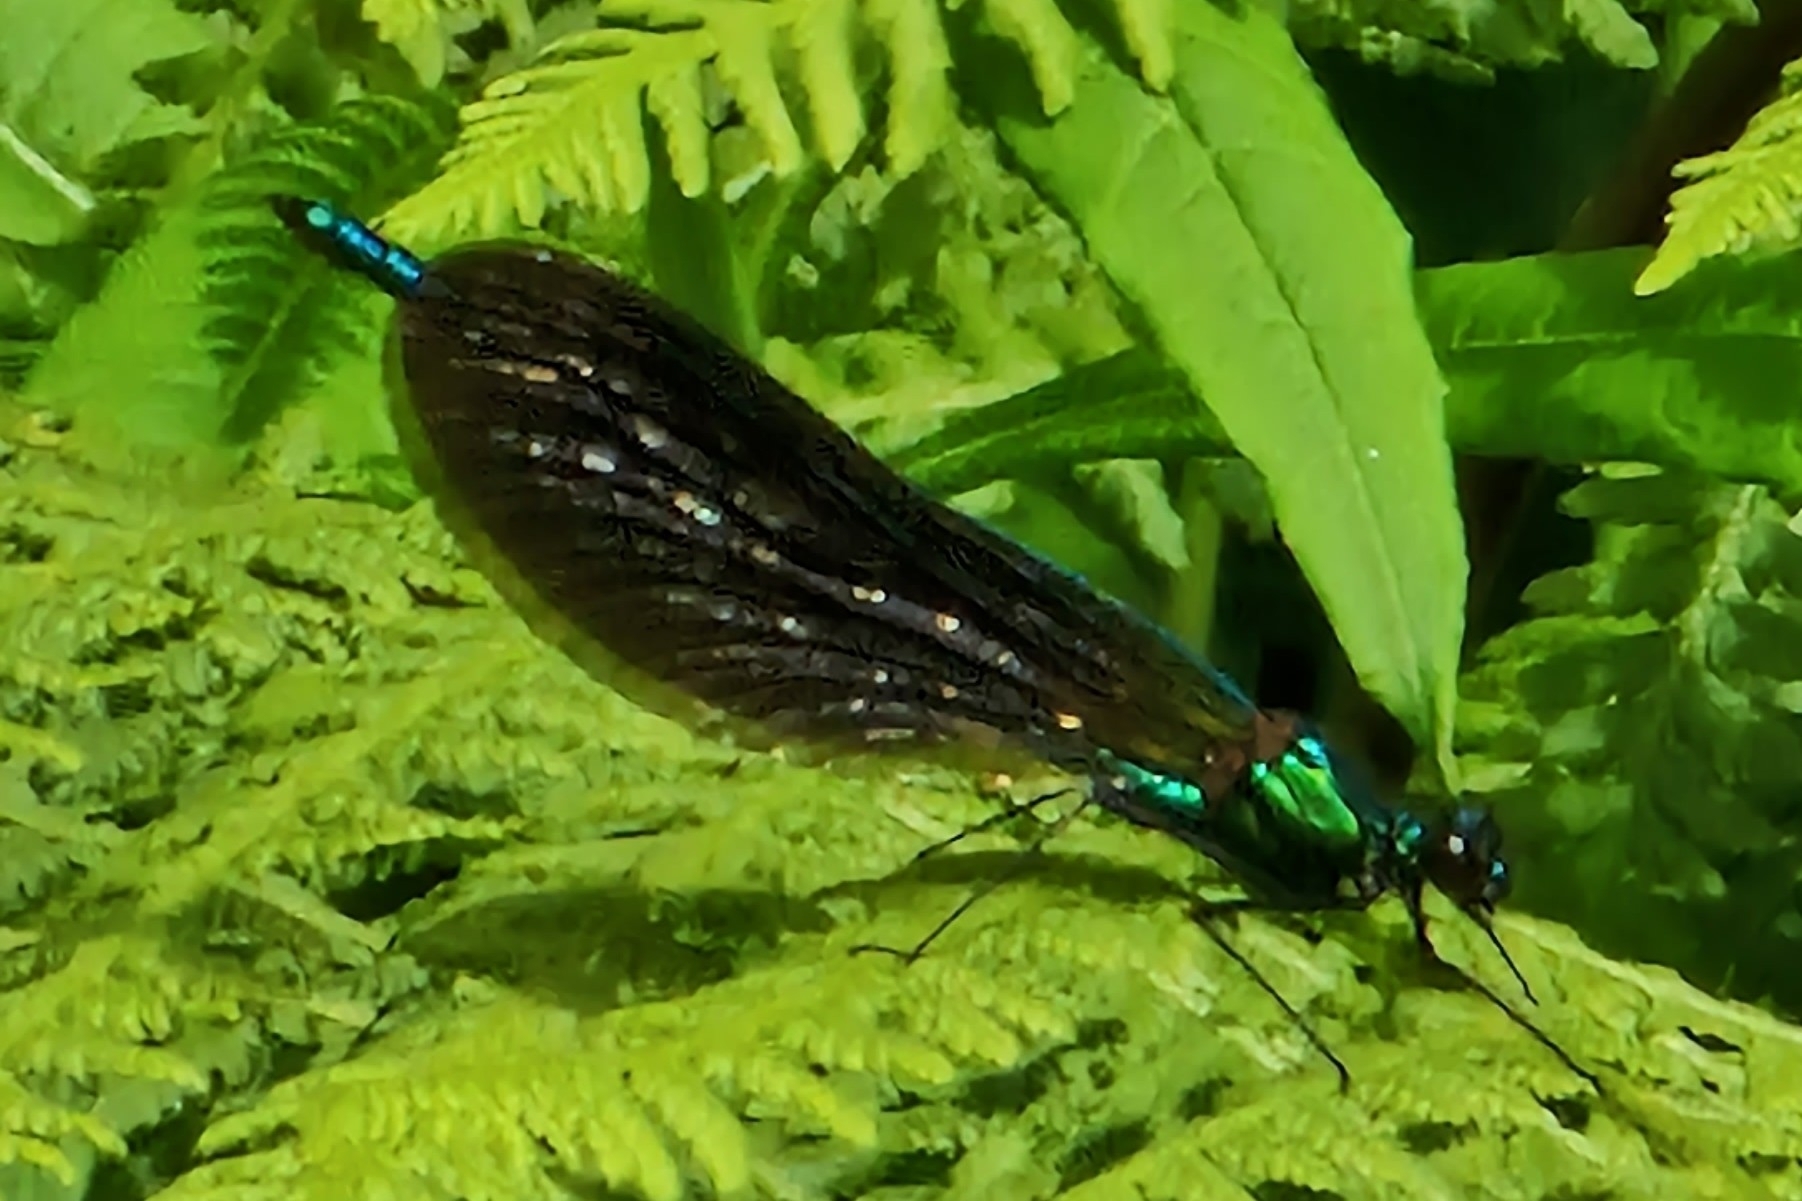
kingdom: Animalia
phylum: Arthropoda
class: Insecta
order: Odonata
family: Calopterygidae
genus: Calopteryx
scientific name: Calopteryx virgo
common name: Beautiful demoiselle
